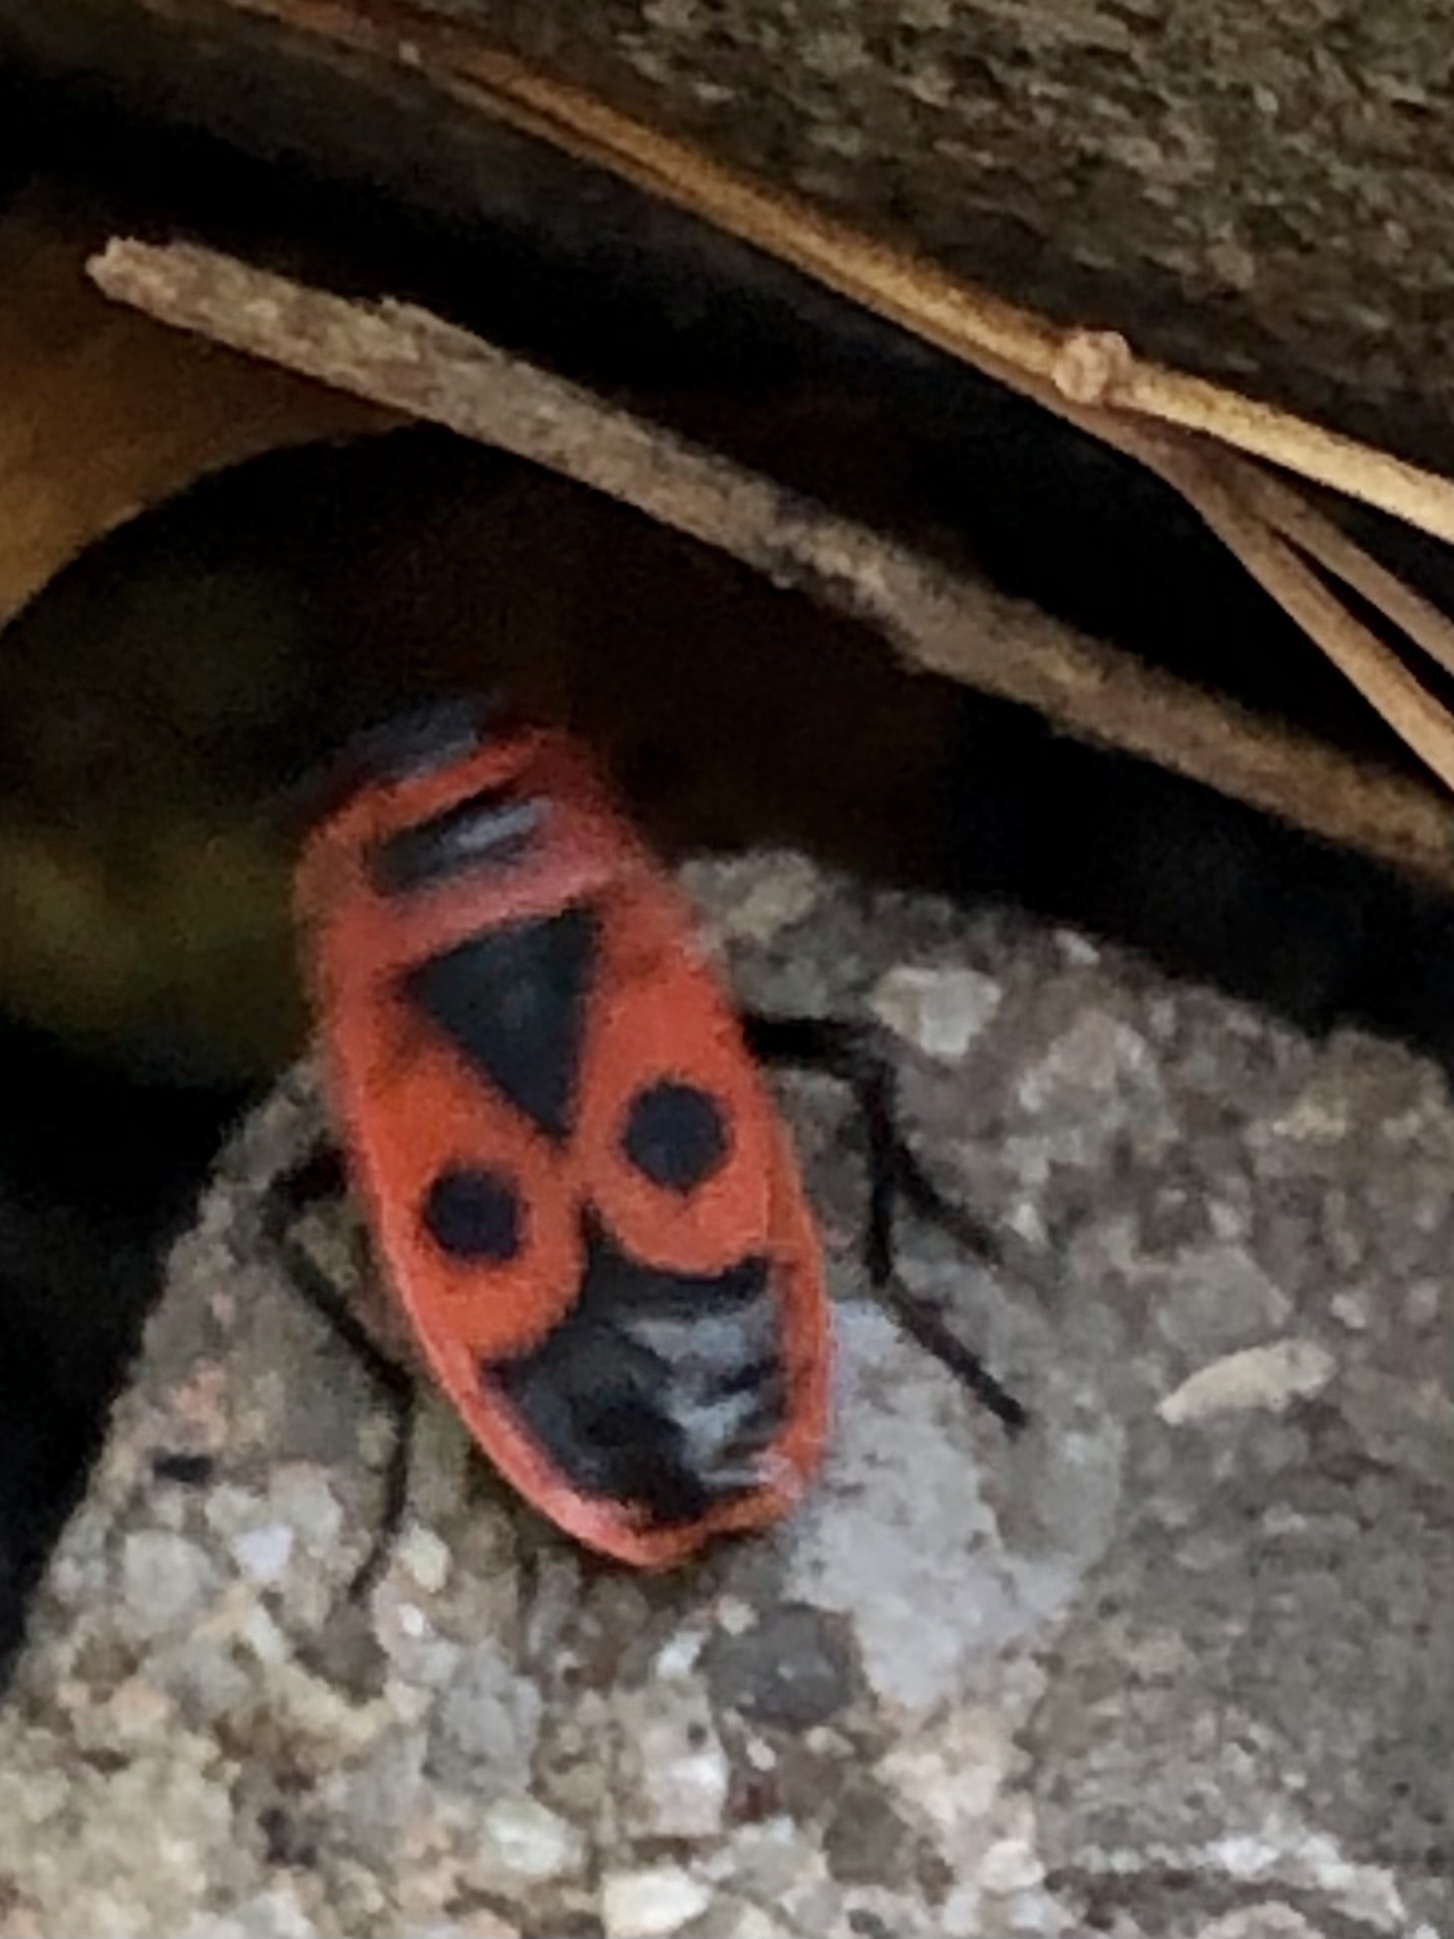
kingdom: Animalia
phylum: Arthropoda
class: Insecta
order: Hemiptera
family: Pyrrhocoridae
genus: Pyrrhocoris
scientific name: Pyrrhocoris apterus
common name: Firebug
